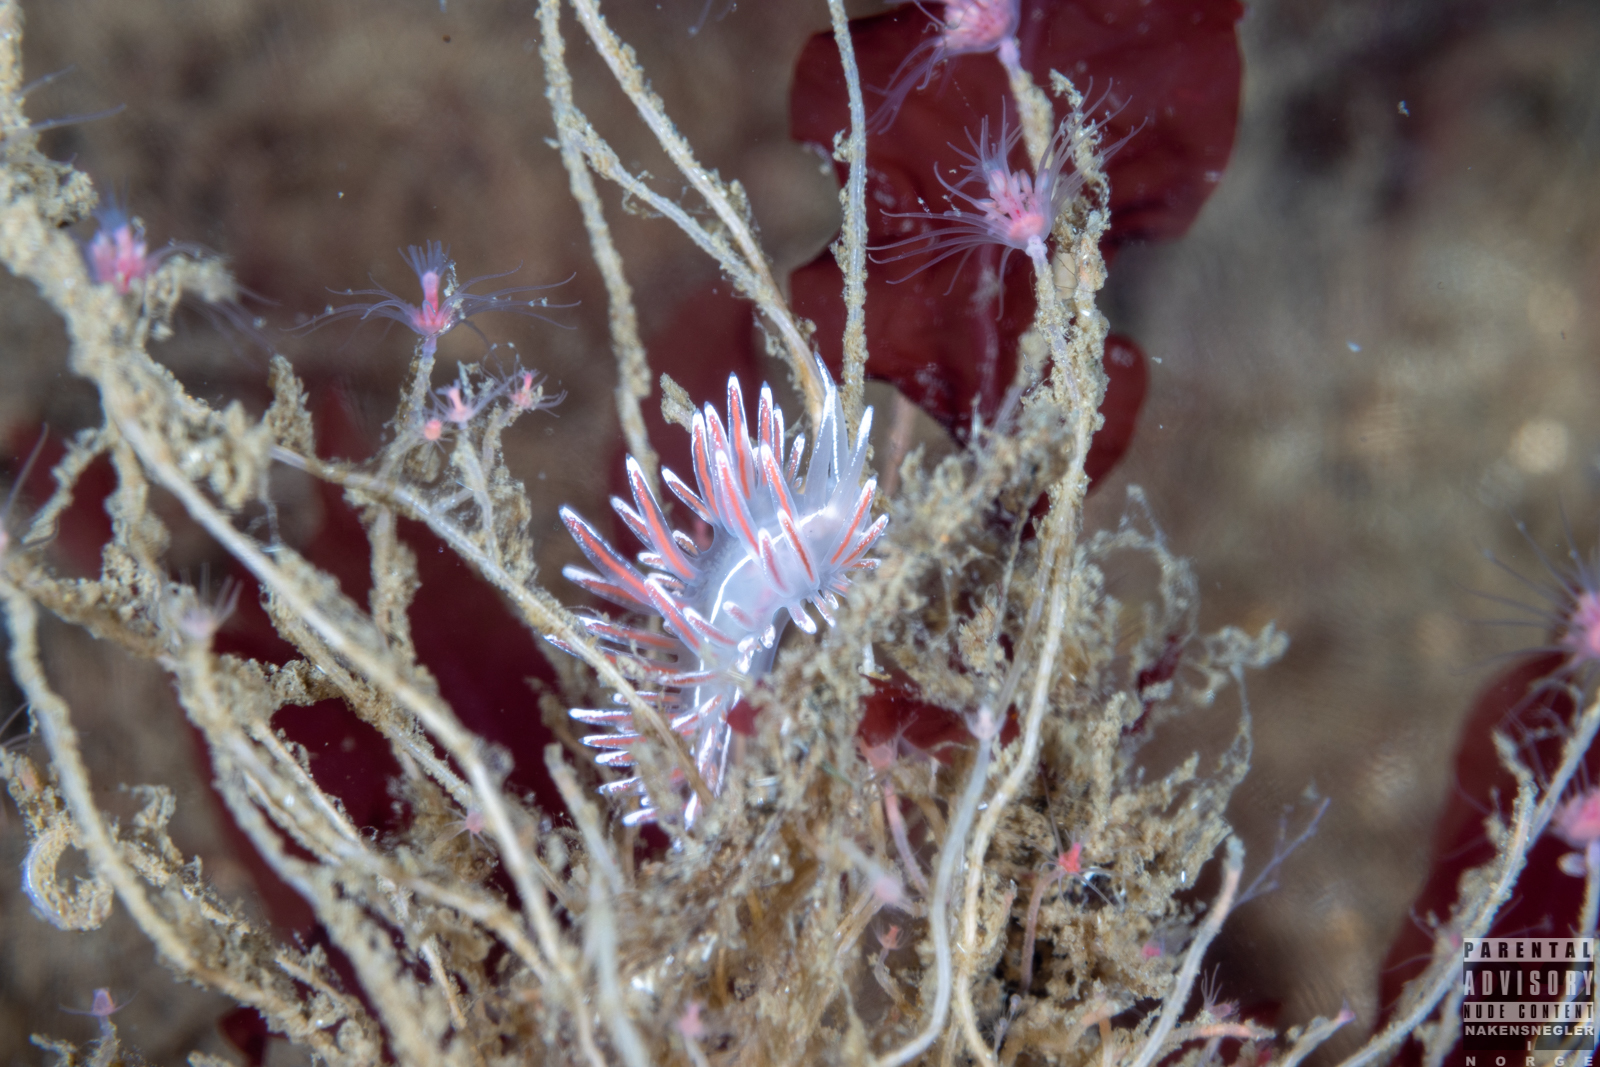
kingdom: Animalia
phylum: Mollusca
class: Gastropoda
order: Nudibranchia
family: Coryphellidae
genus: Coryphella
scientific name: Coryphella lineata
